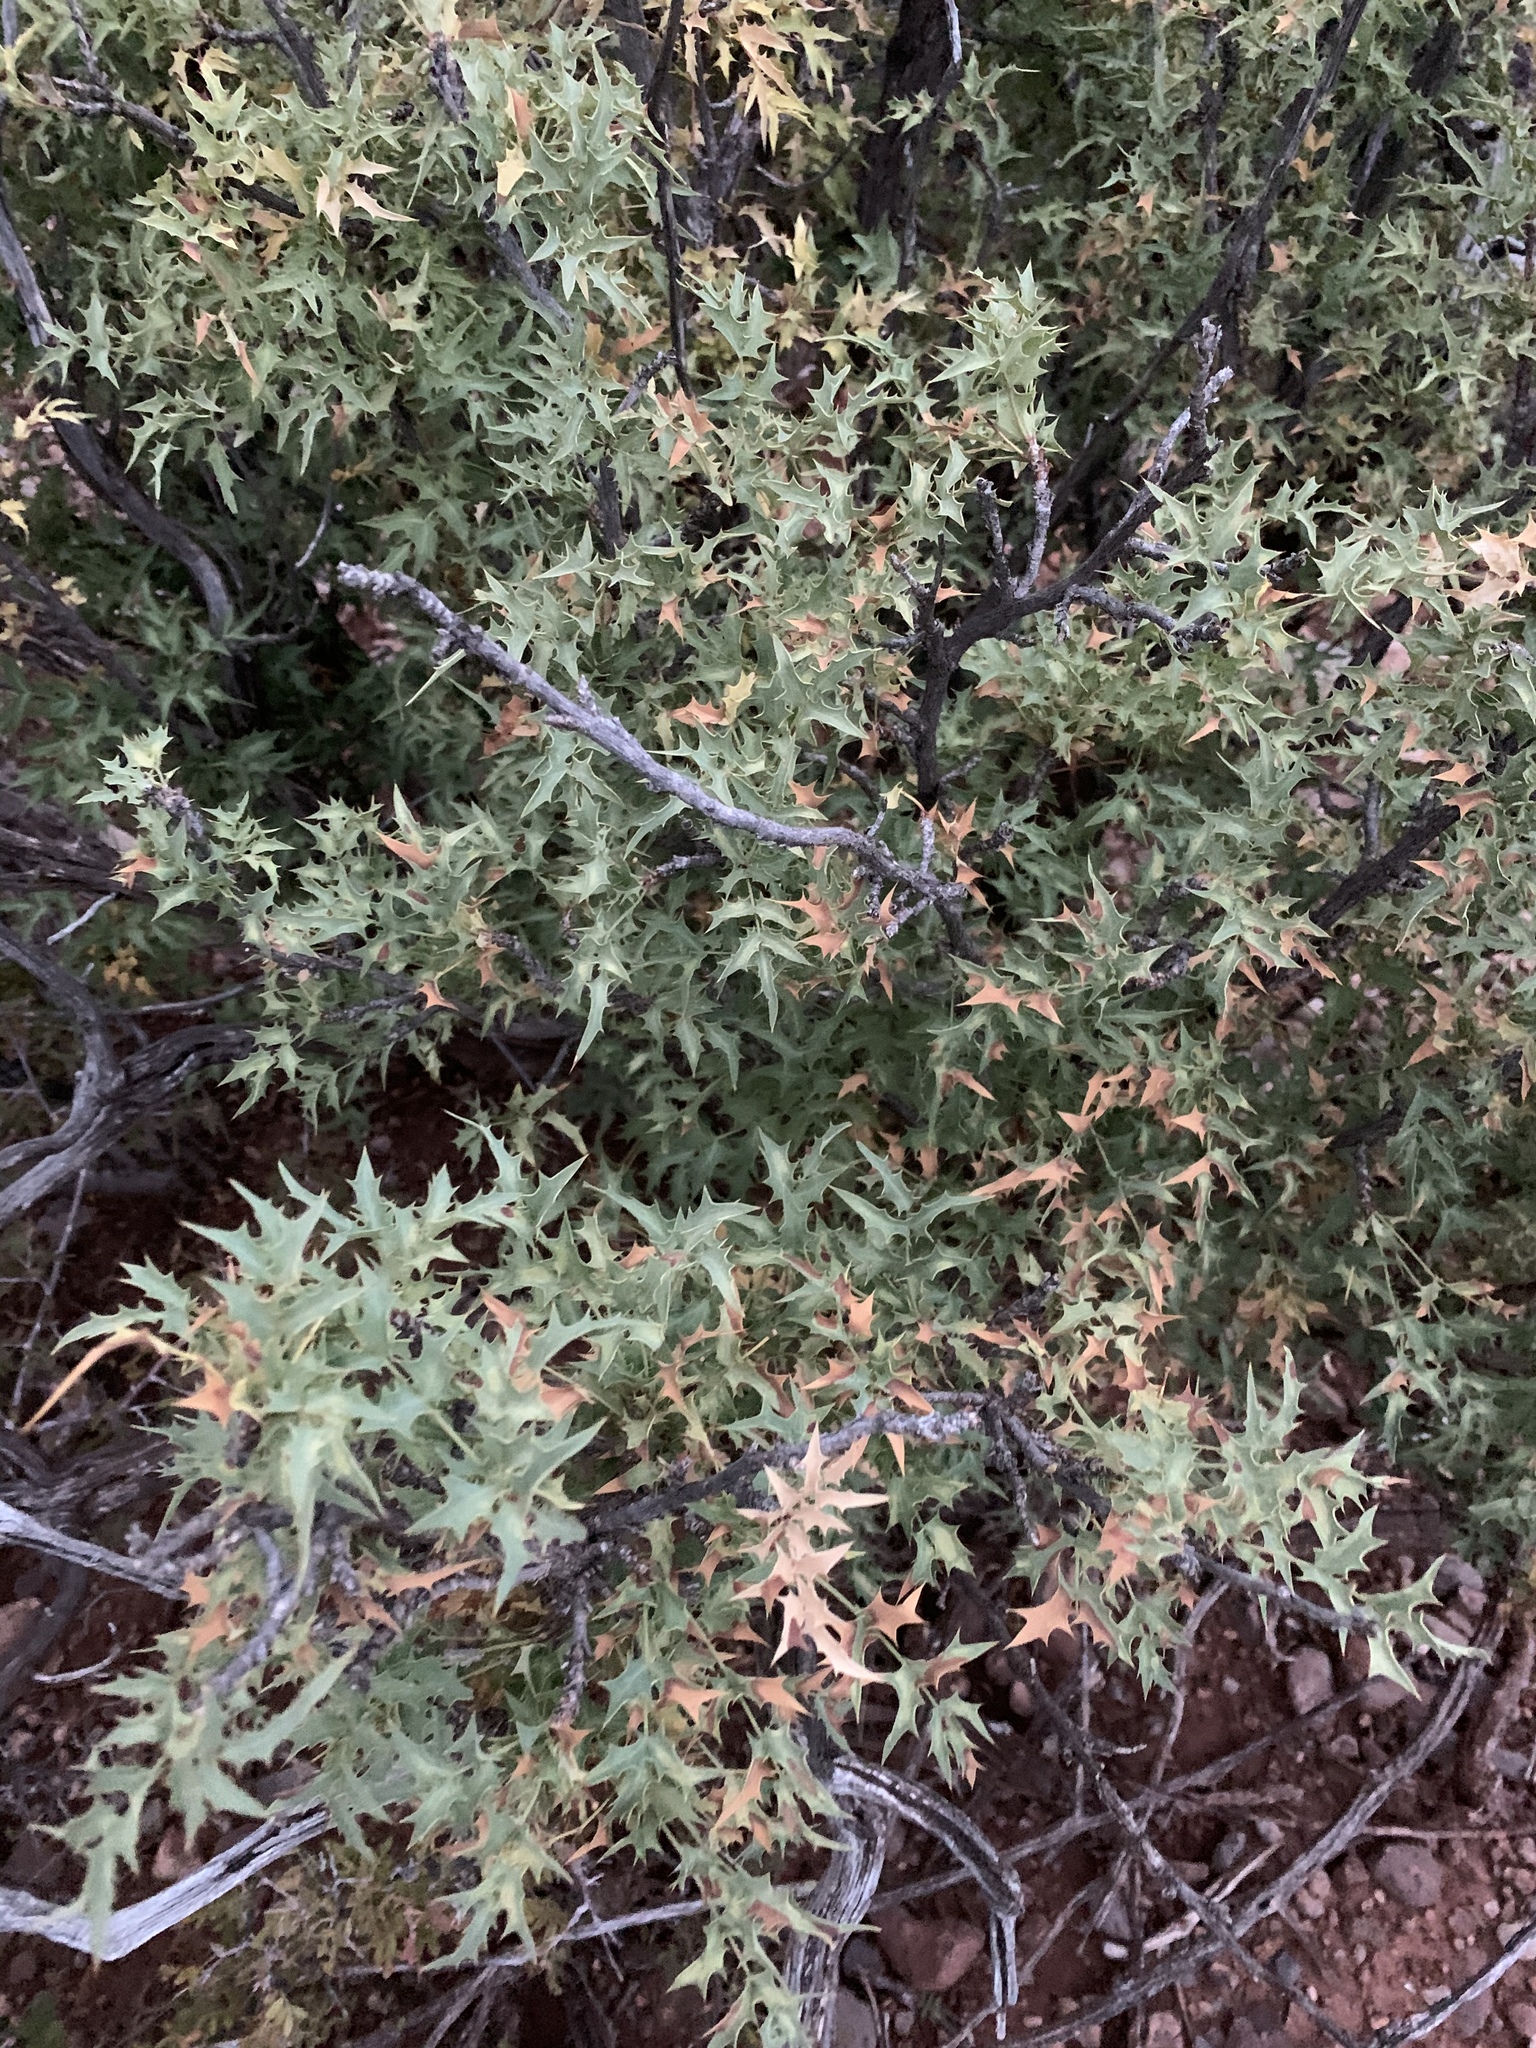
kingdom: Plantae
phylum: Tracheophyta
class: Magnoliopsida
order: Ranunculales
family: Berberidaceae
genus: Alloberberis
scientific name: Alloberberis haematocarpa
